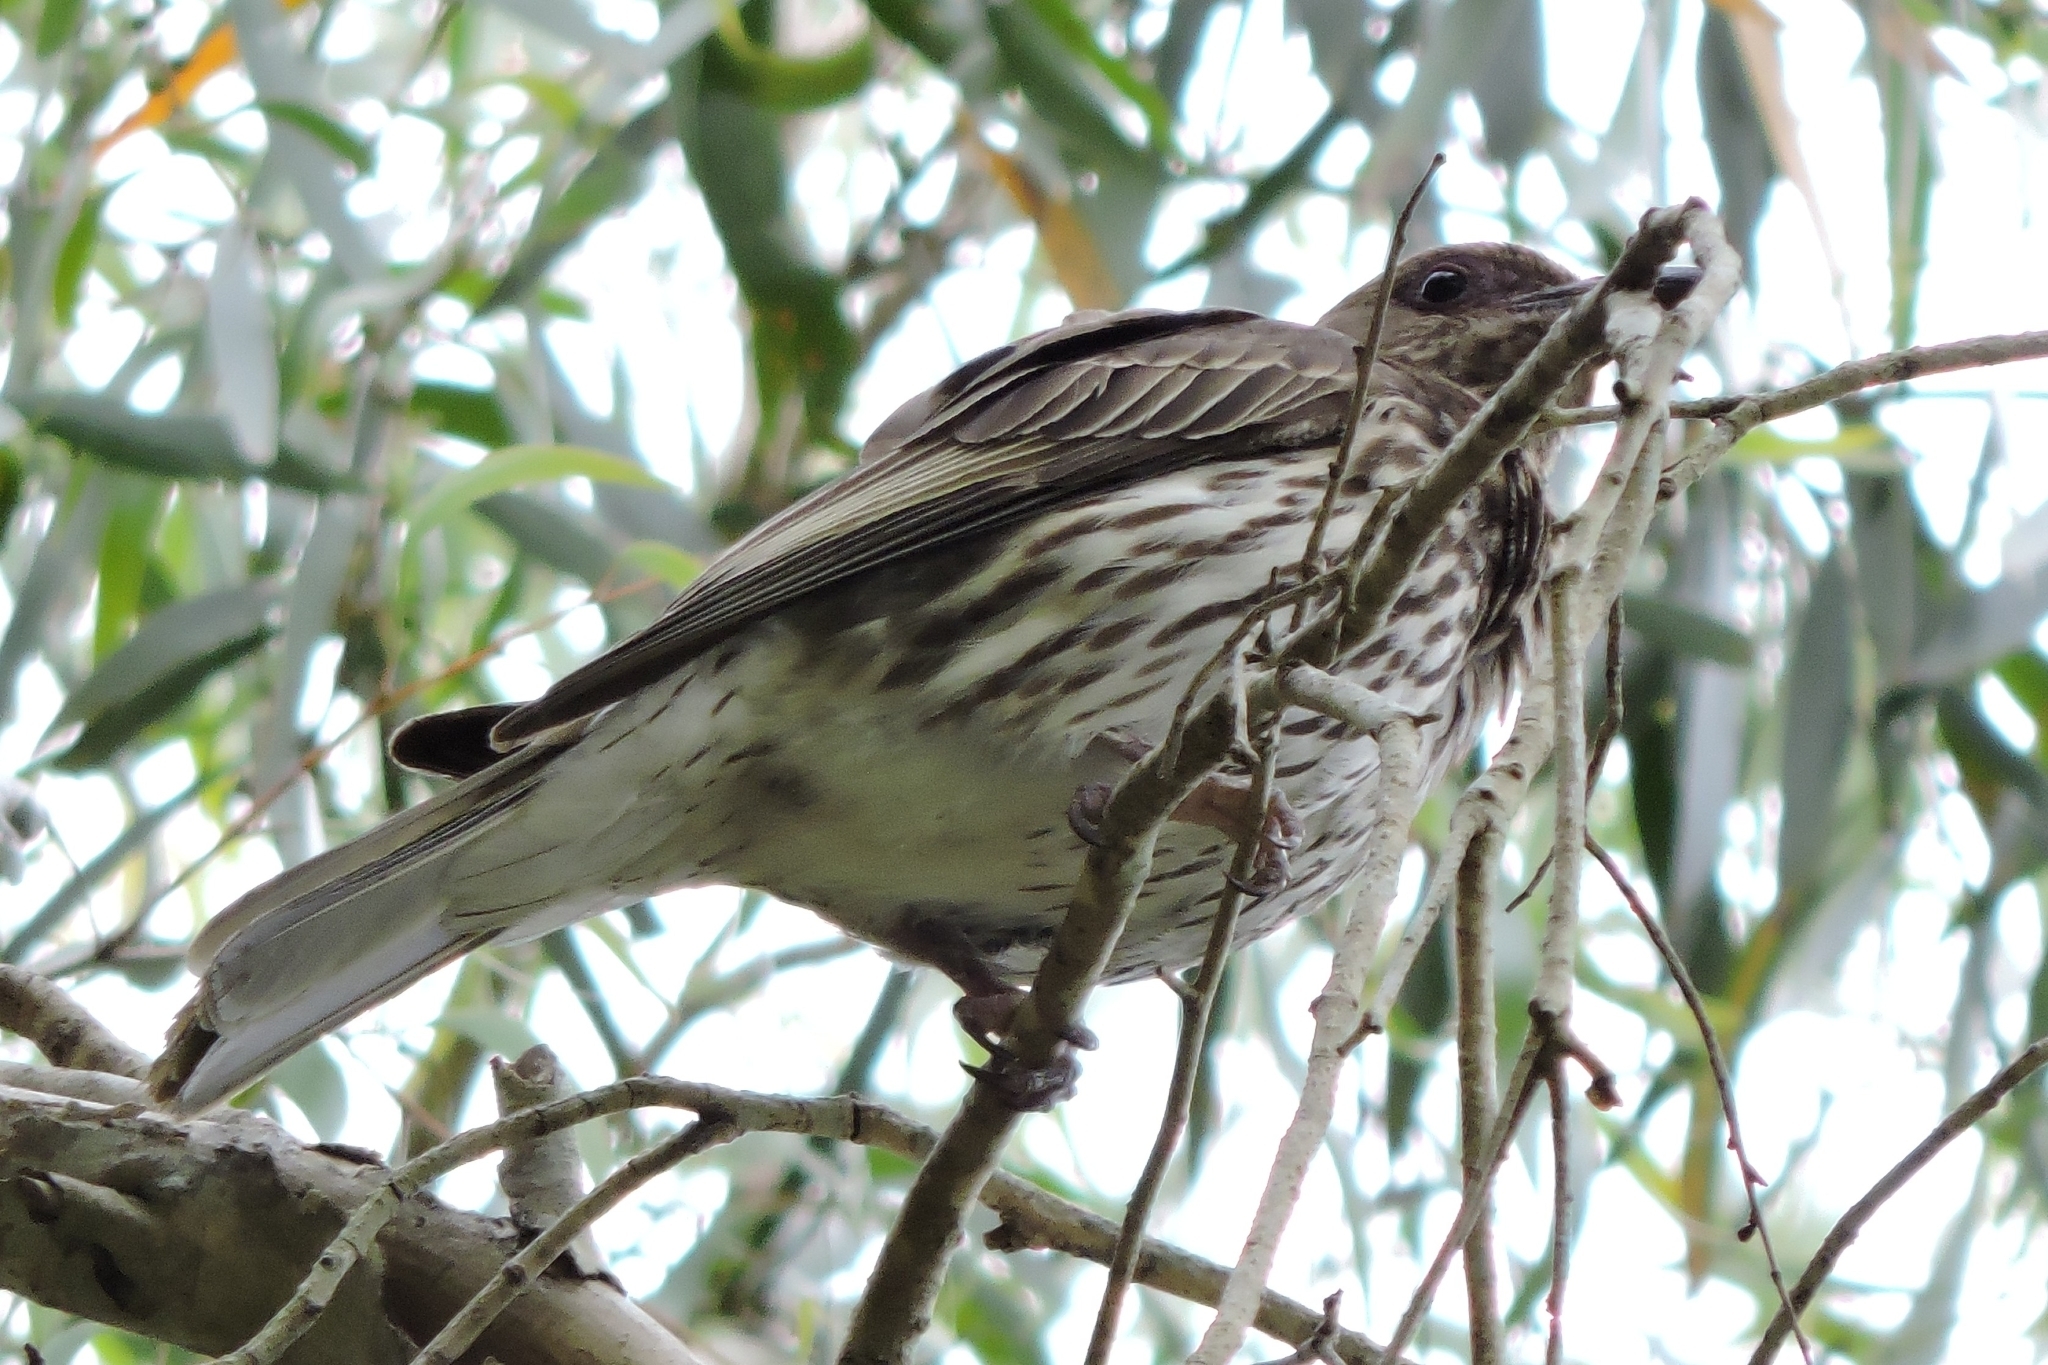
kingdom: Animalia
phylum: Chordata
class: Aves
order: Passeriformes
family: Oriolidae
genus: Sphecotheres
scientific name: Sphecotheres vieilloti
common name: Australasian figbird
